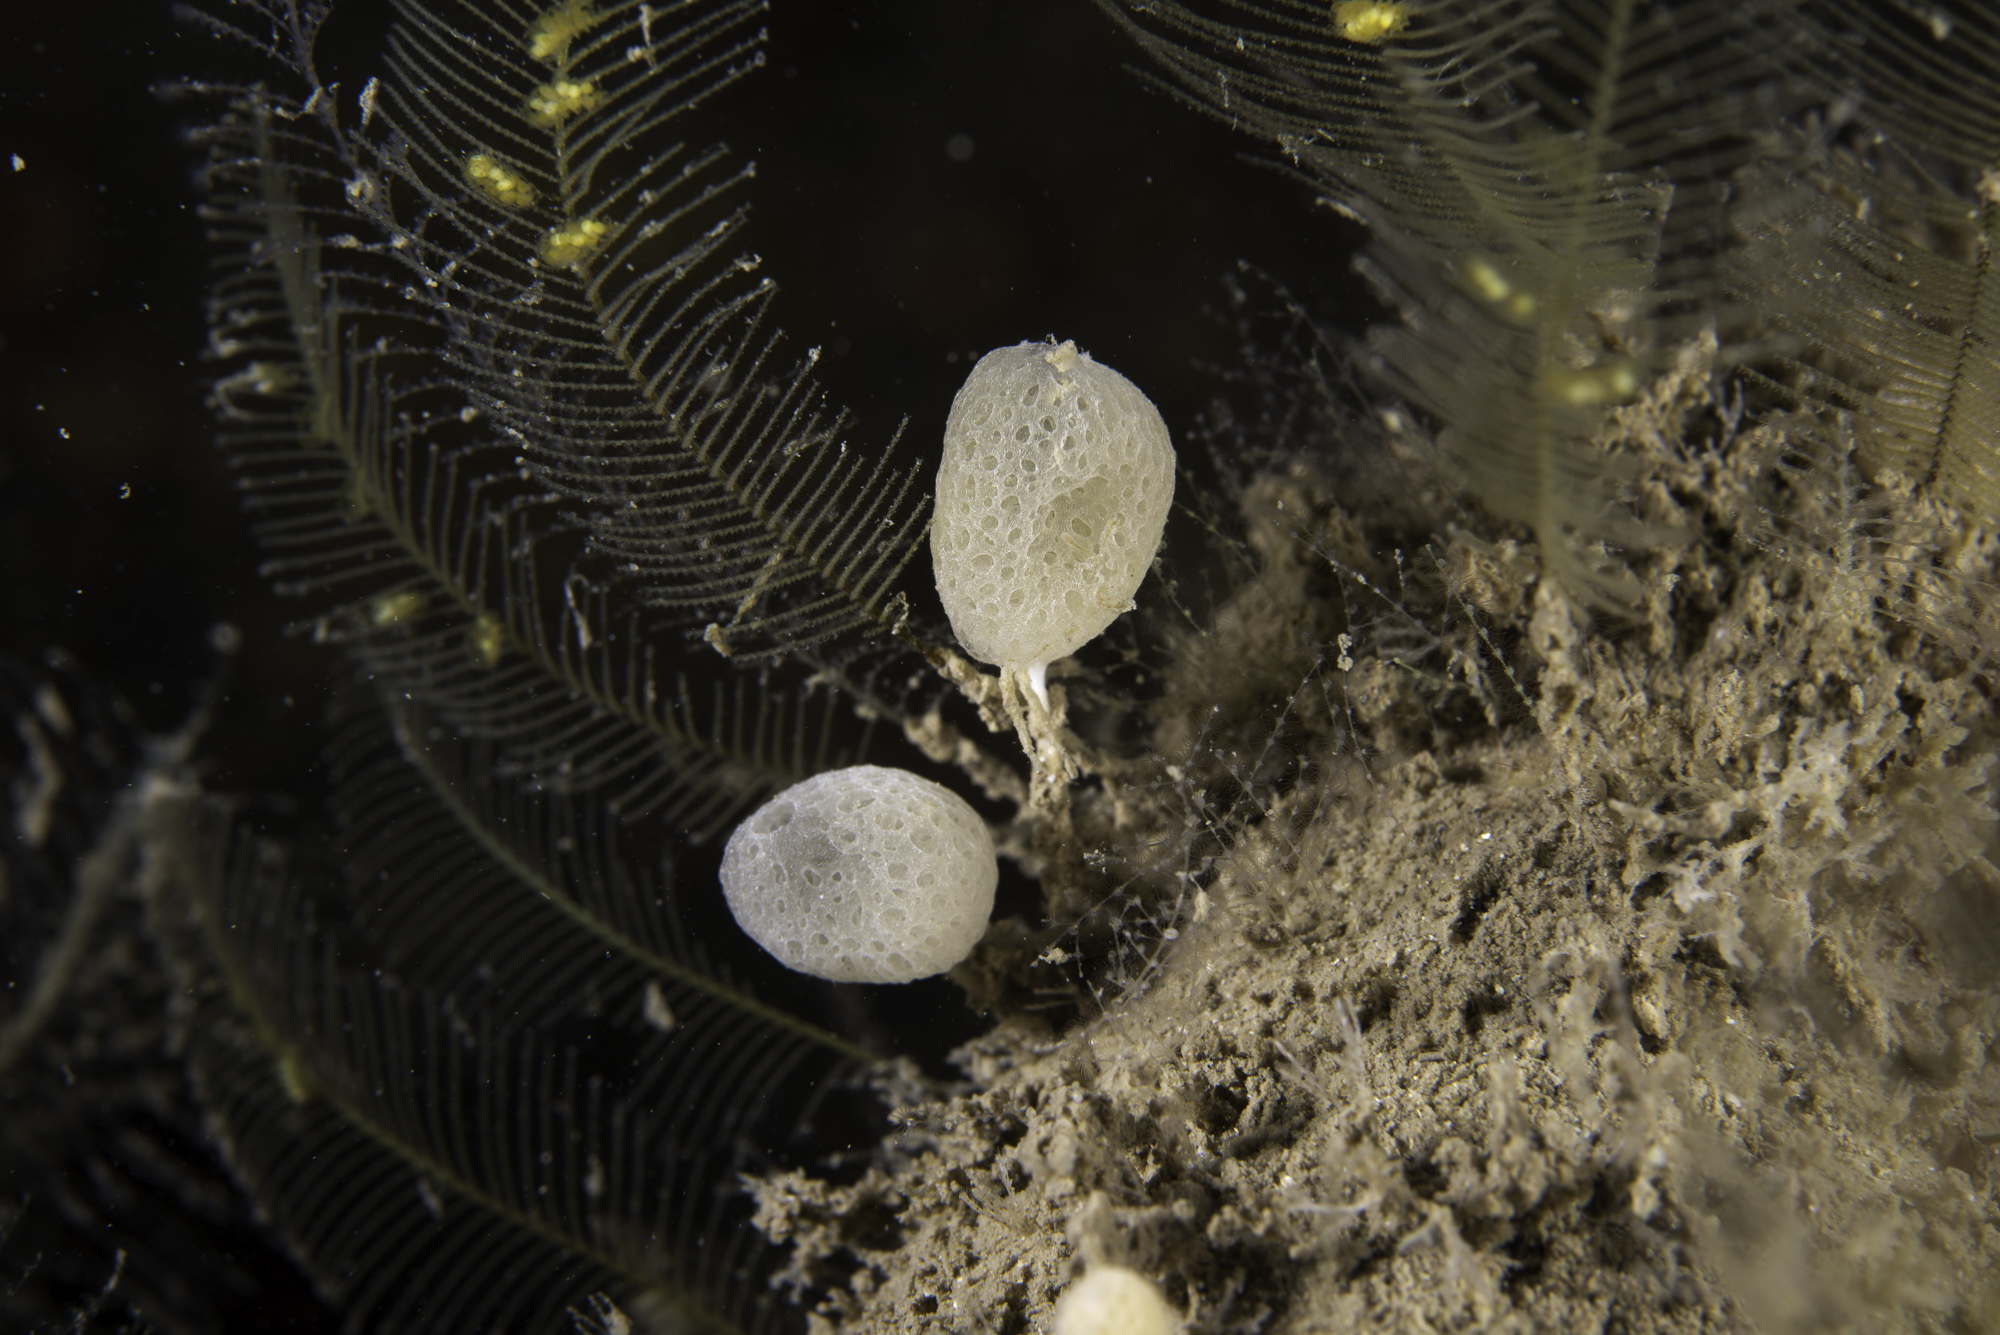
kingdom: Animalia
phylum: Porifera
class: Calcarea
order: Clathrinida
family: Clathrinidae
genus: Clathrina
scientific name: Clathrina lacunosa
